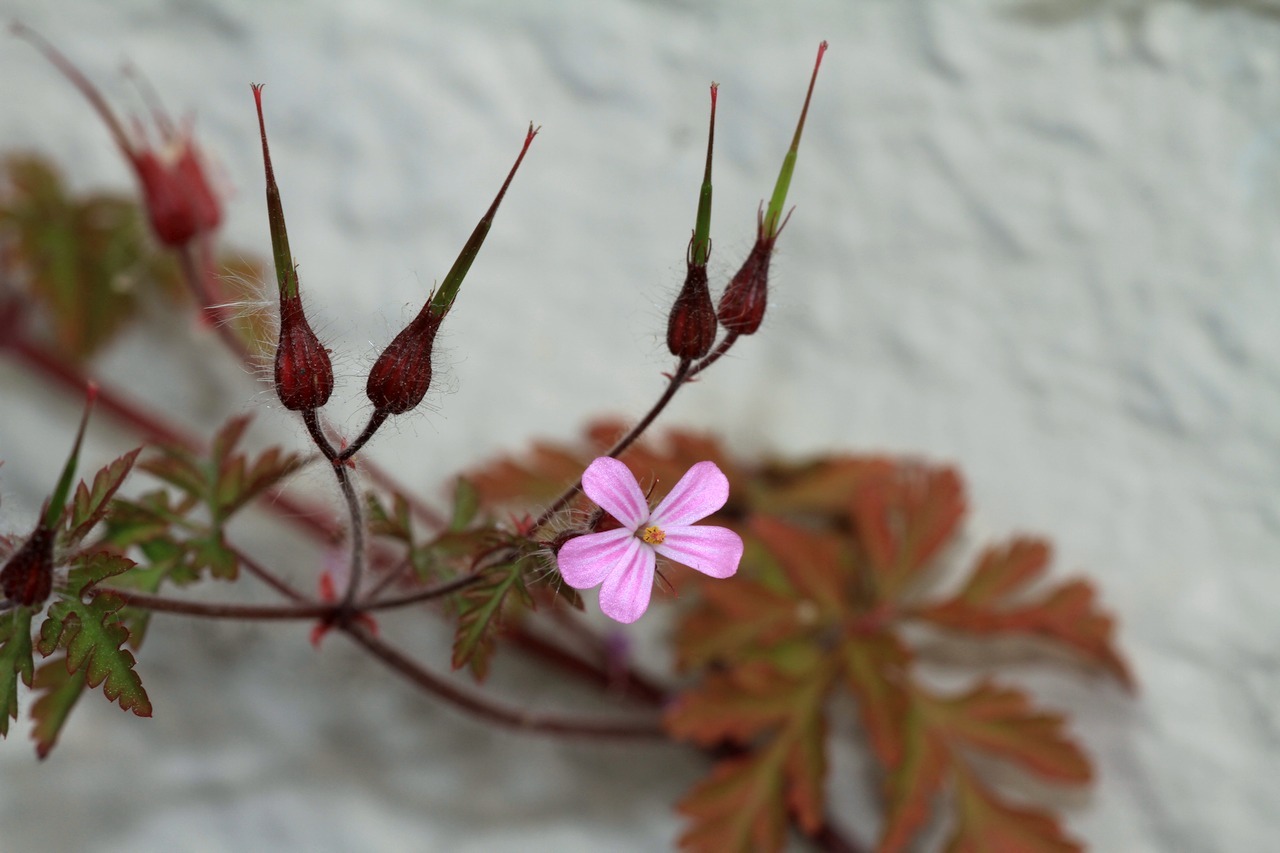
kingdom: Plantae
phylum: Tracheophyta
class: Magnoliopsida
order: Geraniales
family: Geraniaceae
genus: Geranium
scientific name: Geranium robertianum
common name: Herb-robert
